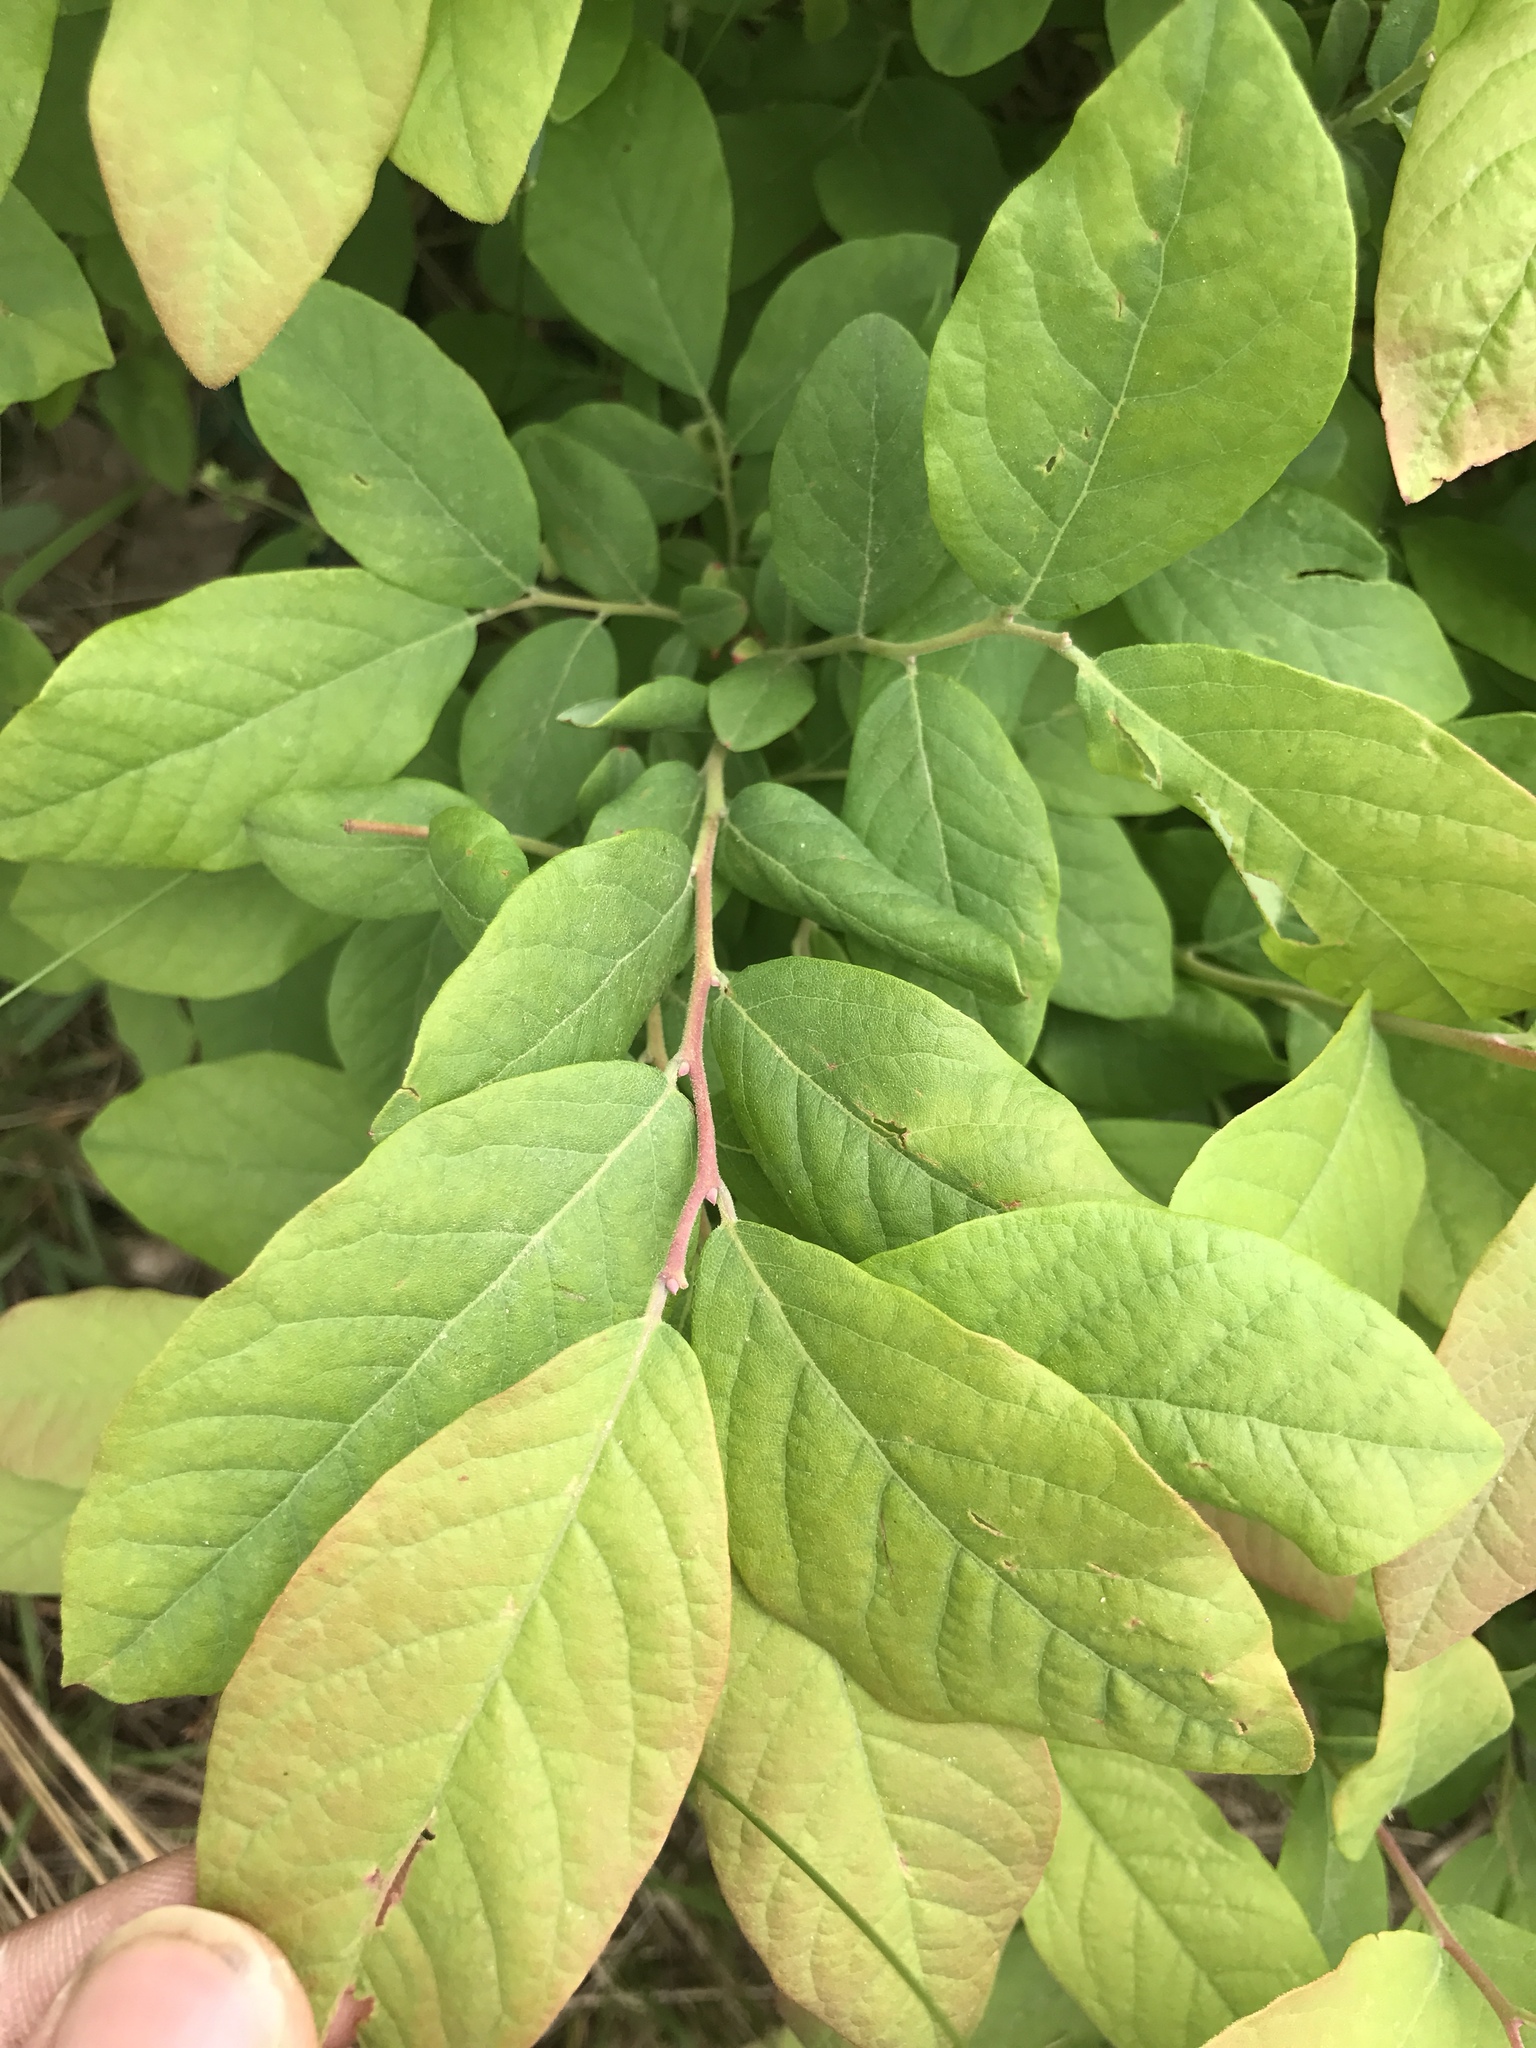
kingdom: Plantae
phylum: Tracheophyta
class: Magnoliopsida
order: Ericales
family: Ericaceae
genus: Vaccinium
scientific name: Vaccinium stamineum
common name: Deerberry
